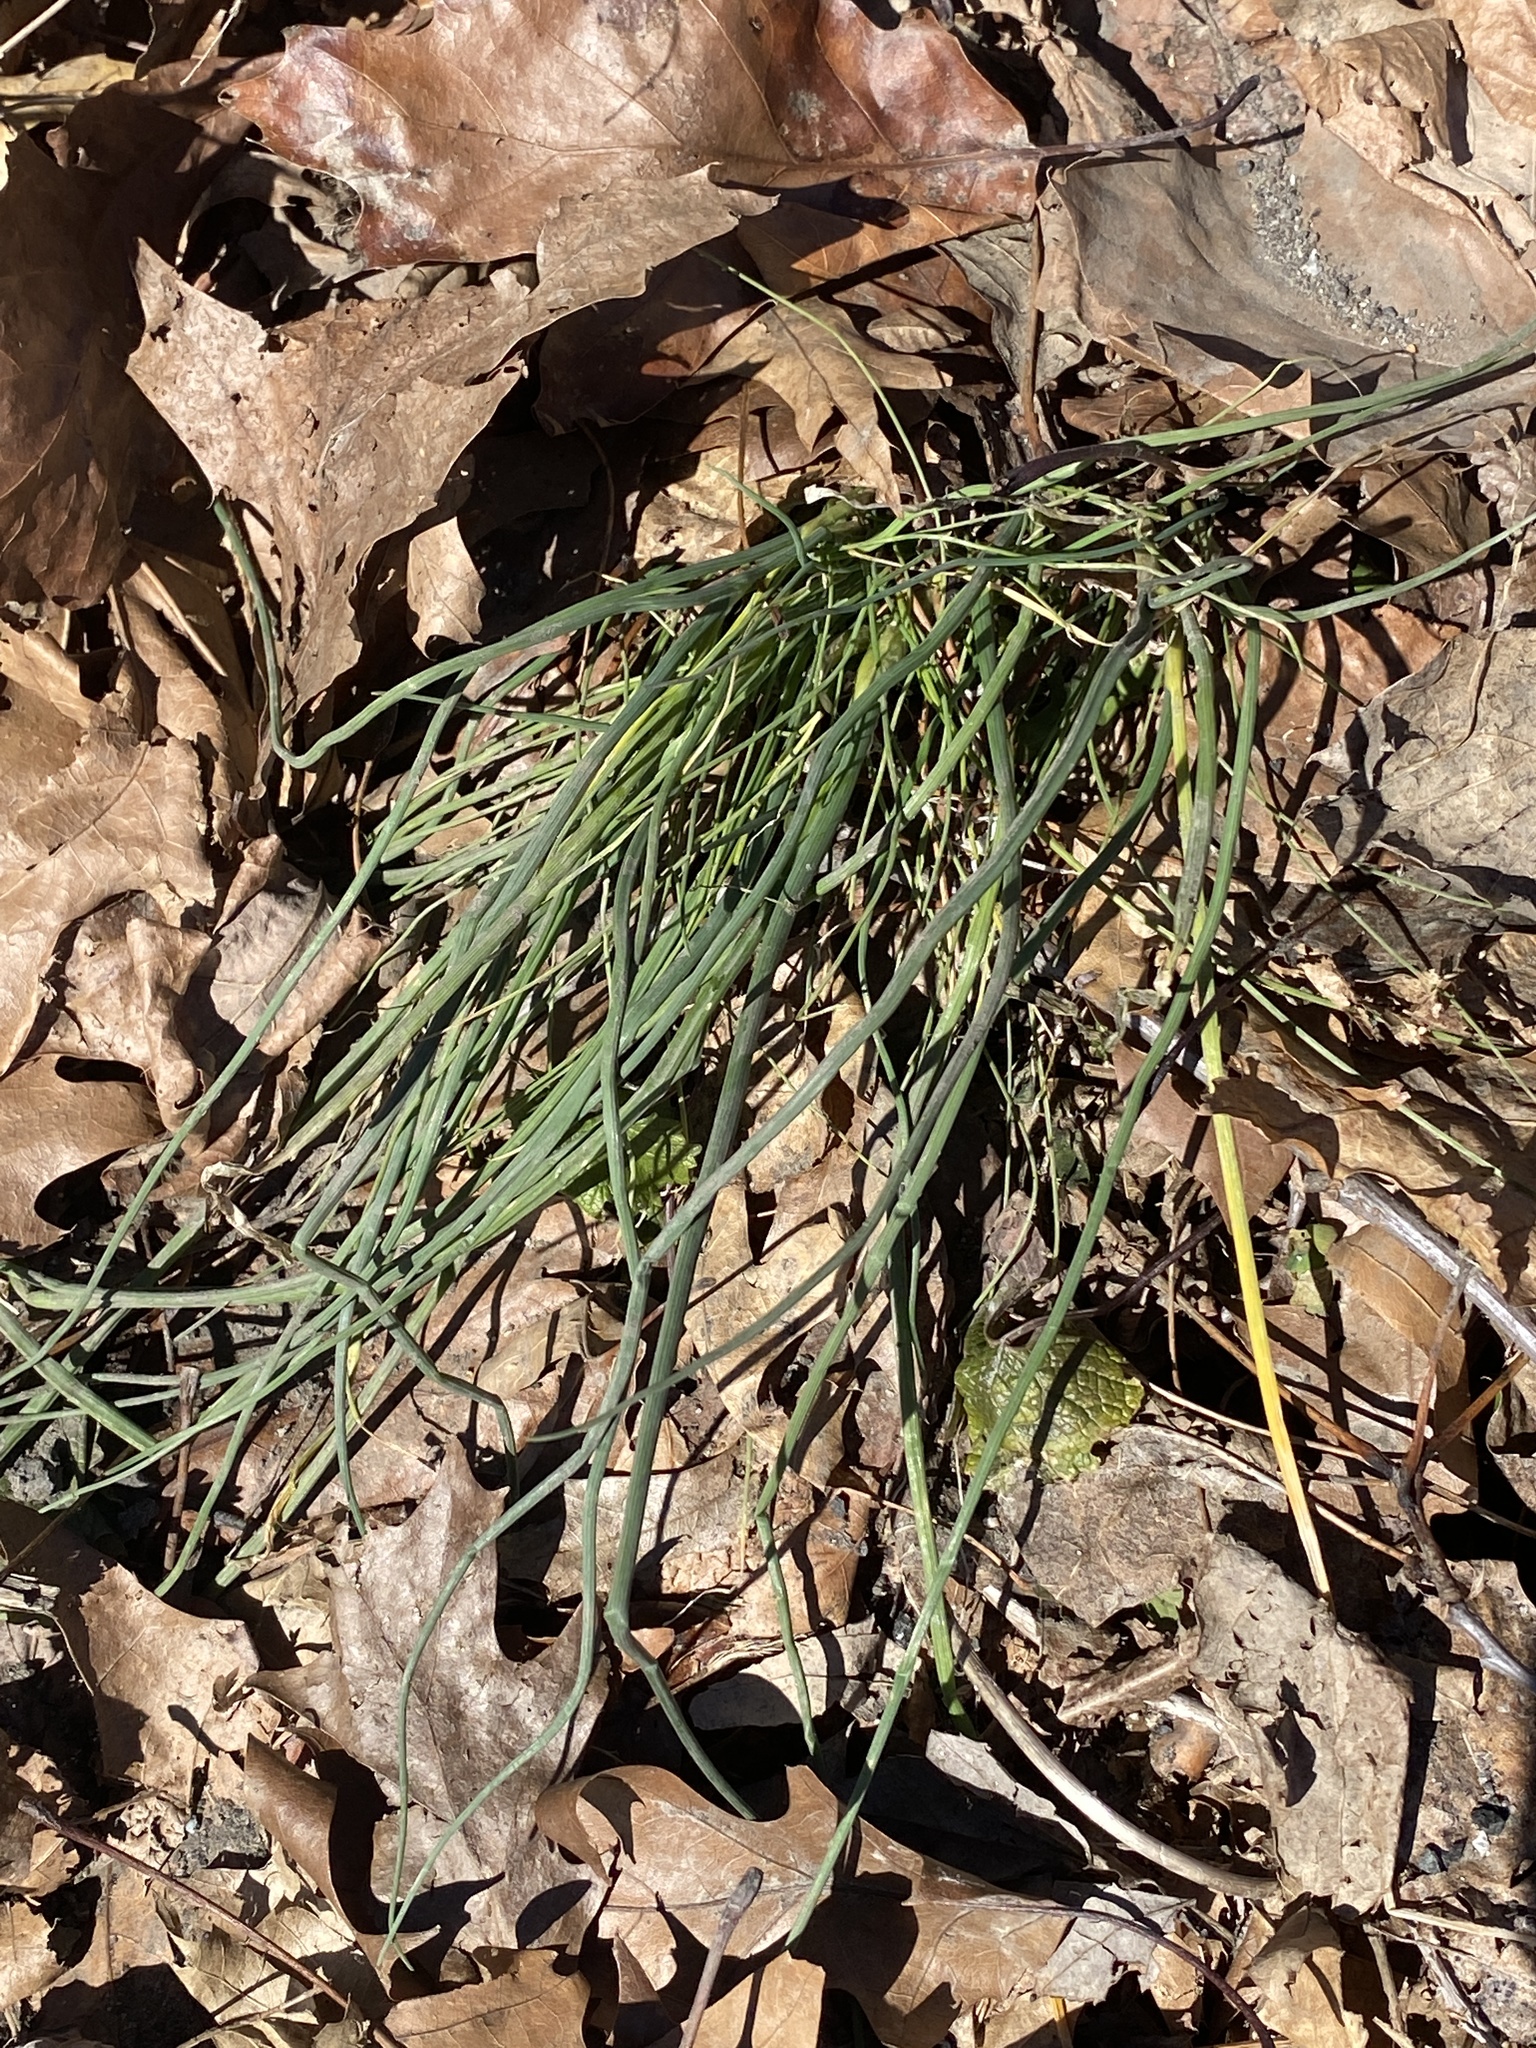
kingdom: Plantae
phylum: Tracheophyta
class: Liliopsida
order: Asparagales
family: Amaryllidaceae
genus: Allium
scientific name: Allium vineale
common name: Crow garlic
